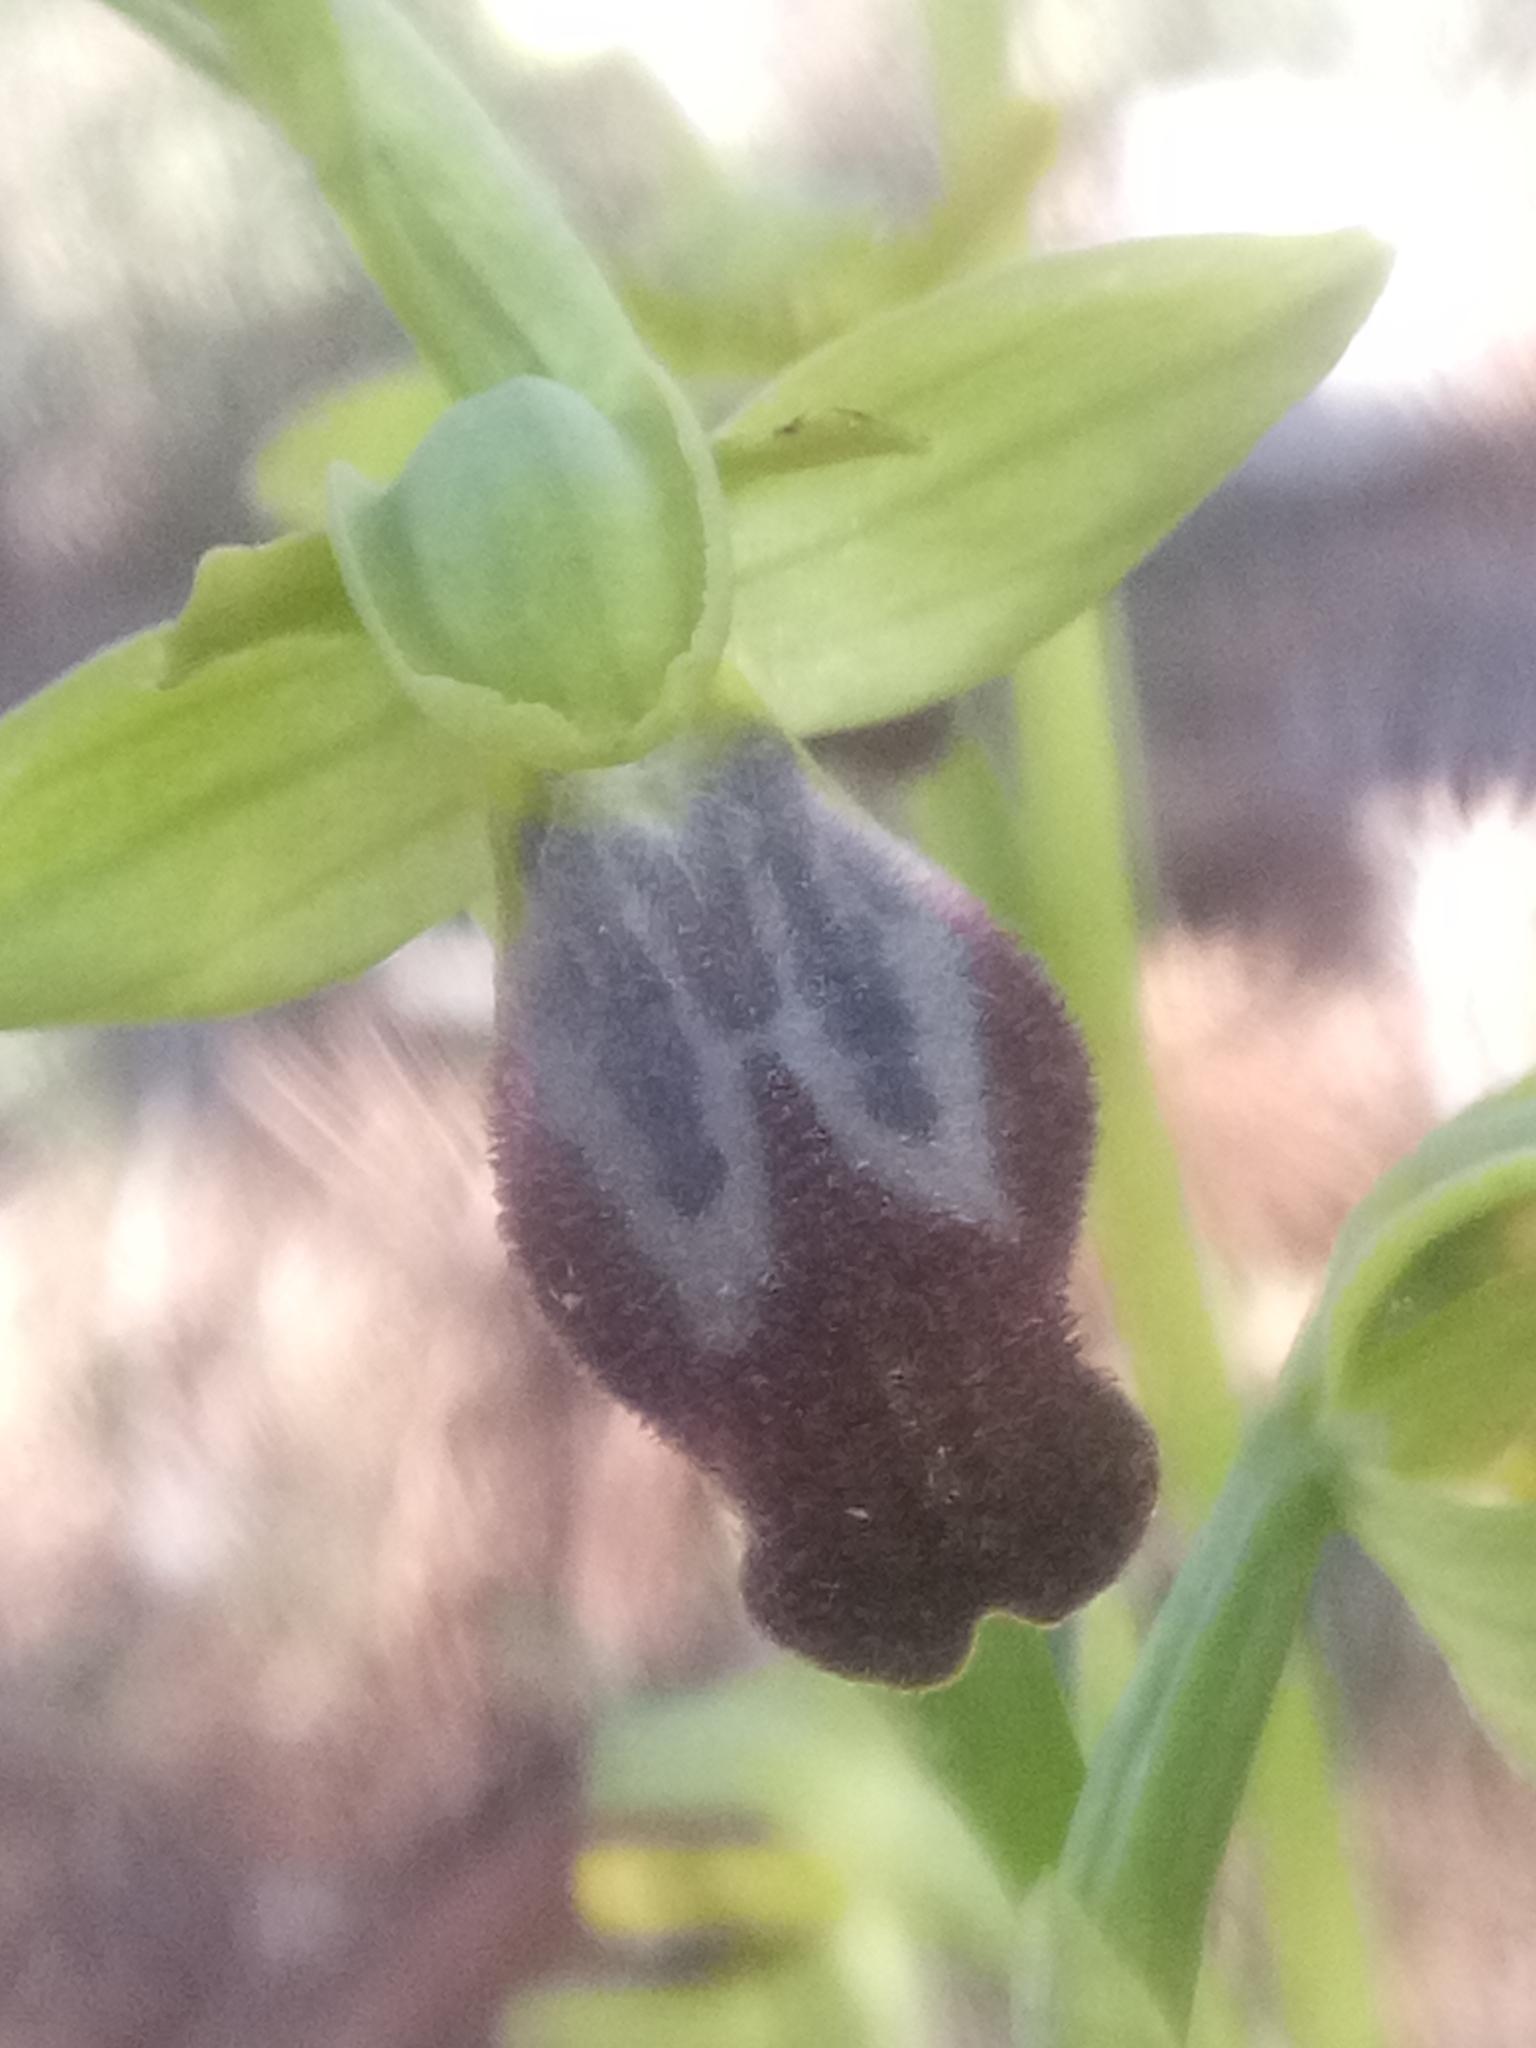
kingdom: Plantae
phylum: Tracheophyta
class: Liliopsida
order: Asparagales
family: Orchidaceae
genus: Ophrys
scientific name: Ophrys fusca
